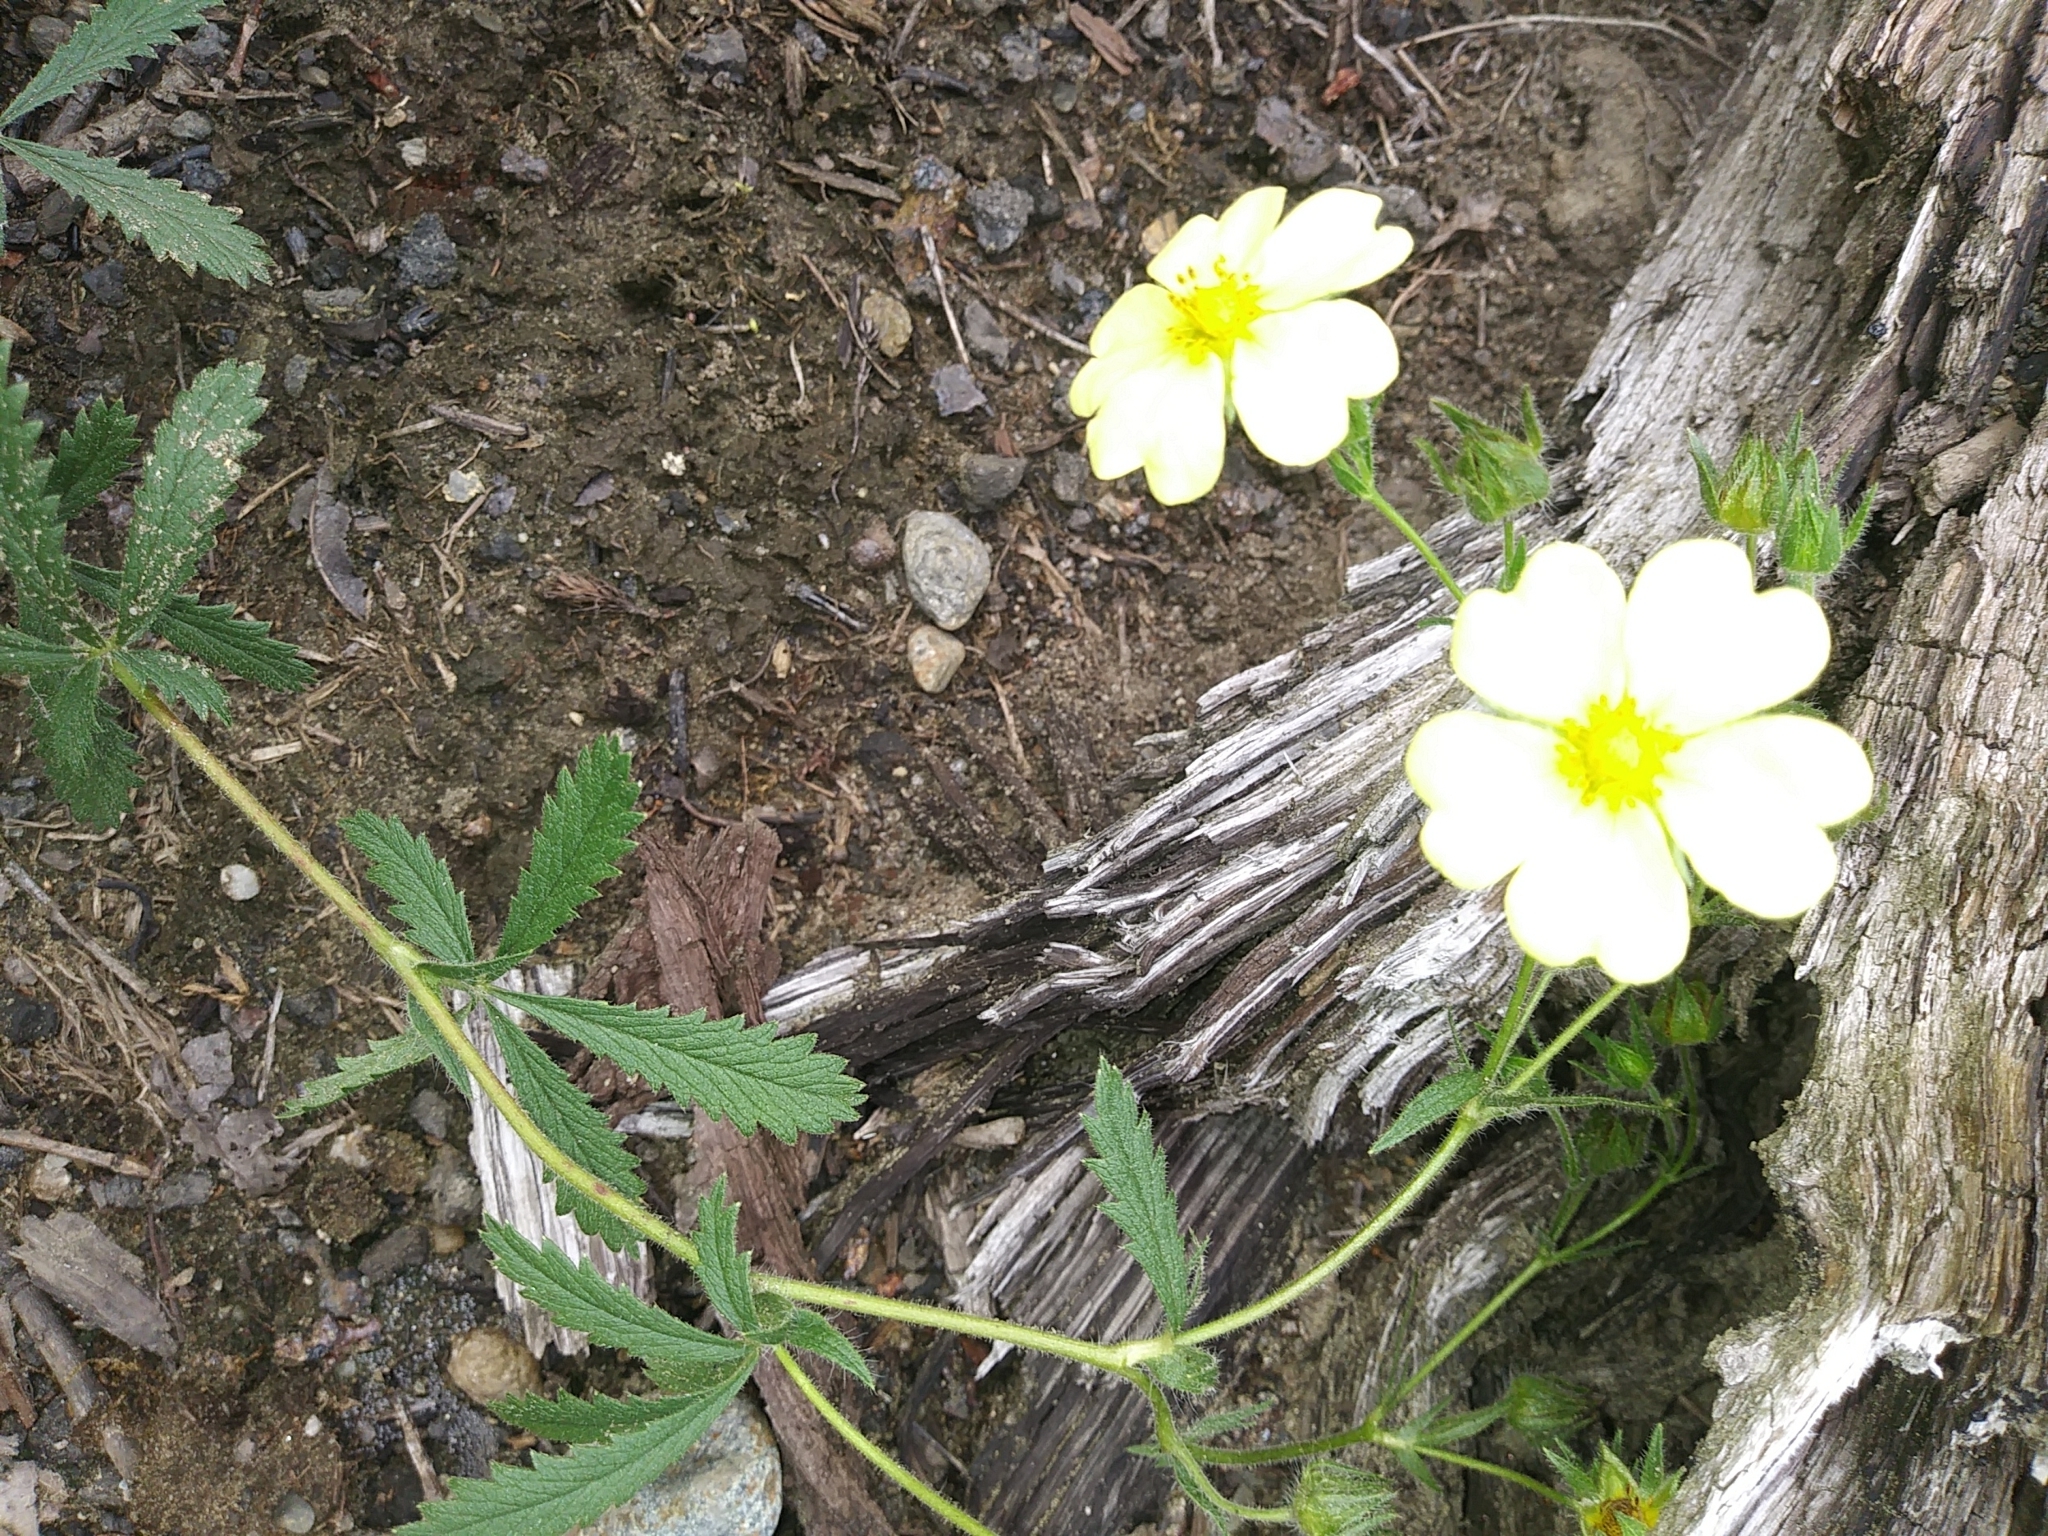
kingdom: Plantae
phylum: Tracheophyta
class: Magnoliopsida
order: Rosales
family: Rosaceae
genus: Potentilla
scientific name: Potentilla recta
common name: Sulphur cinquefoil
